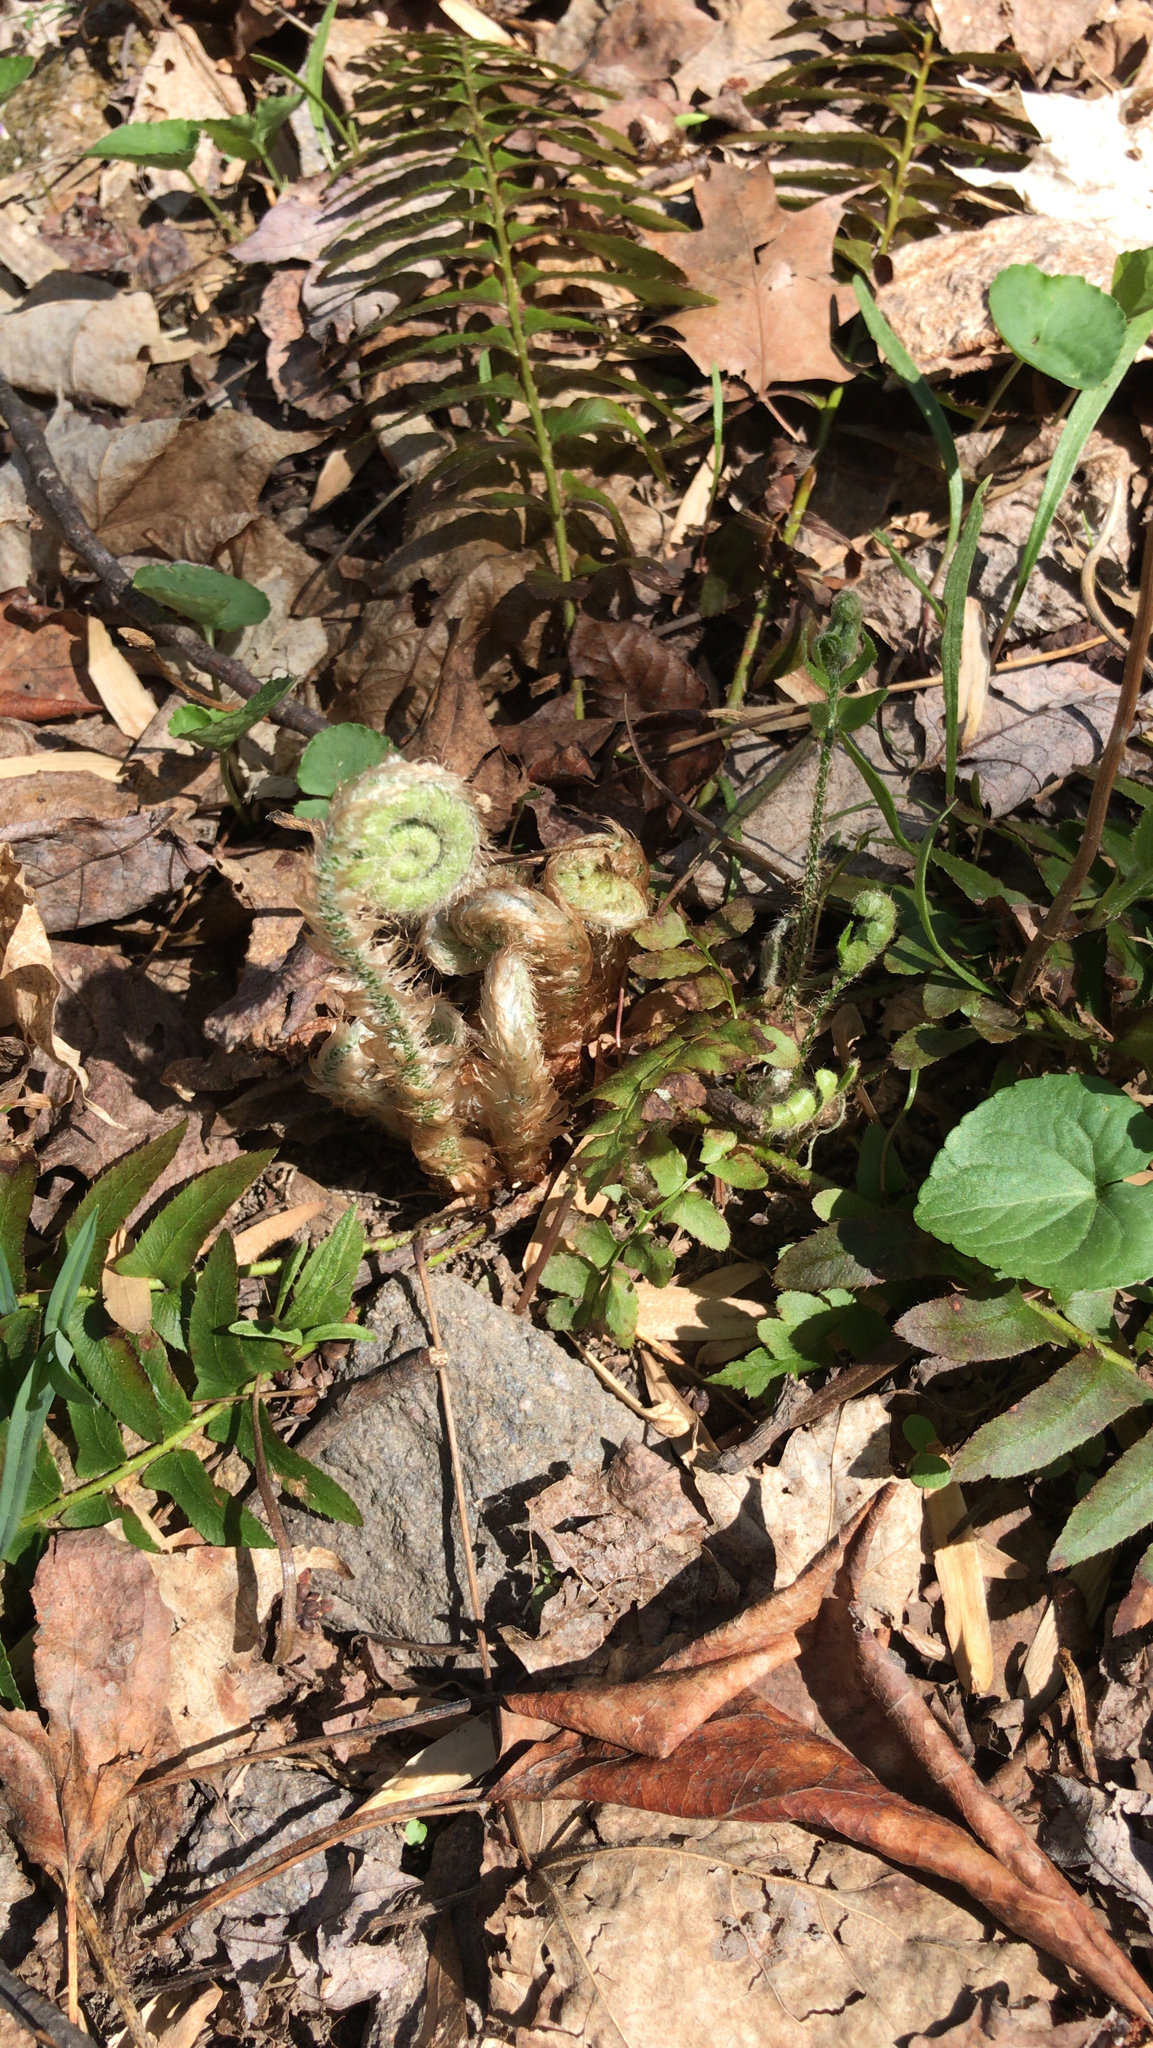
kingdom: Plantae
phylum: Tracheophyta
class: Polypodiopsida
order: Polypodiales
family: Dryopteridaceae
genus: Polystichum
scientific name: Polystichum acrostichoides
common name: Christmas fern
